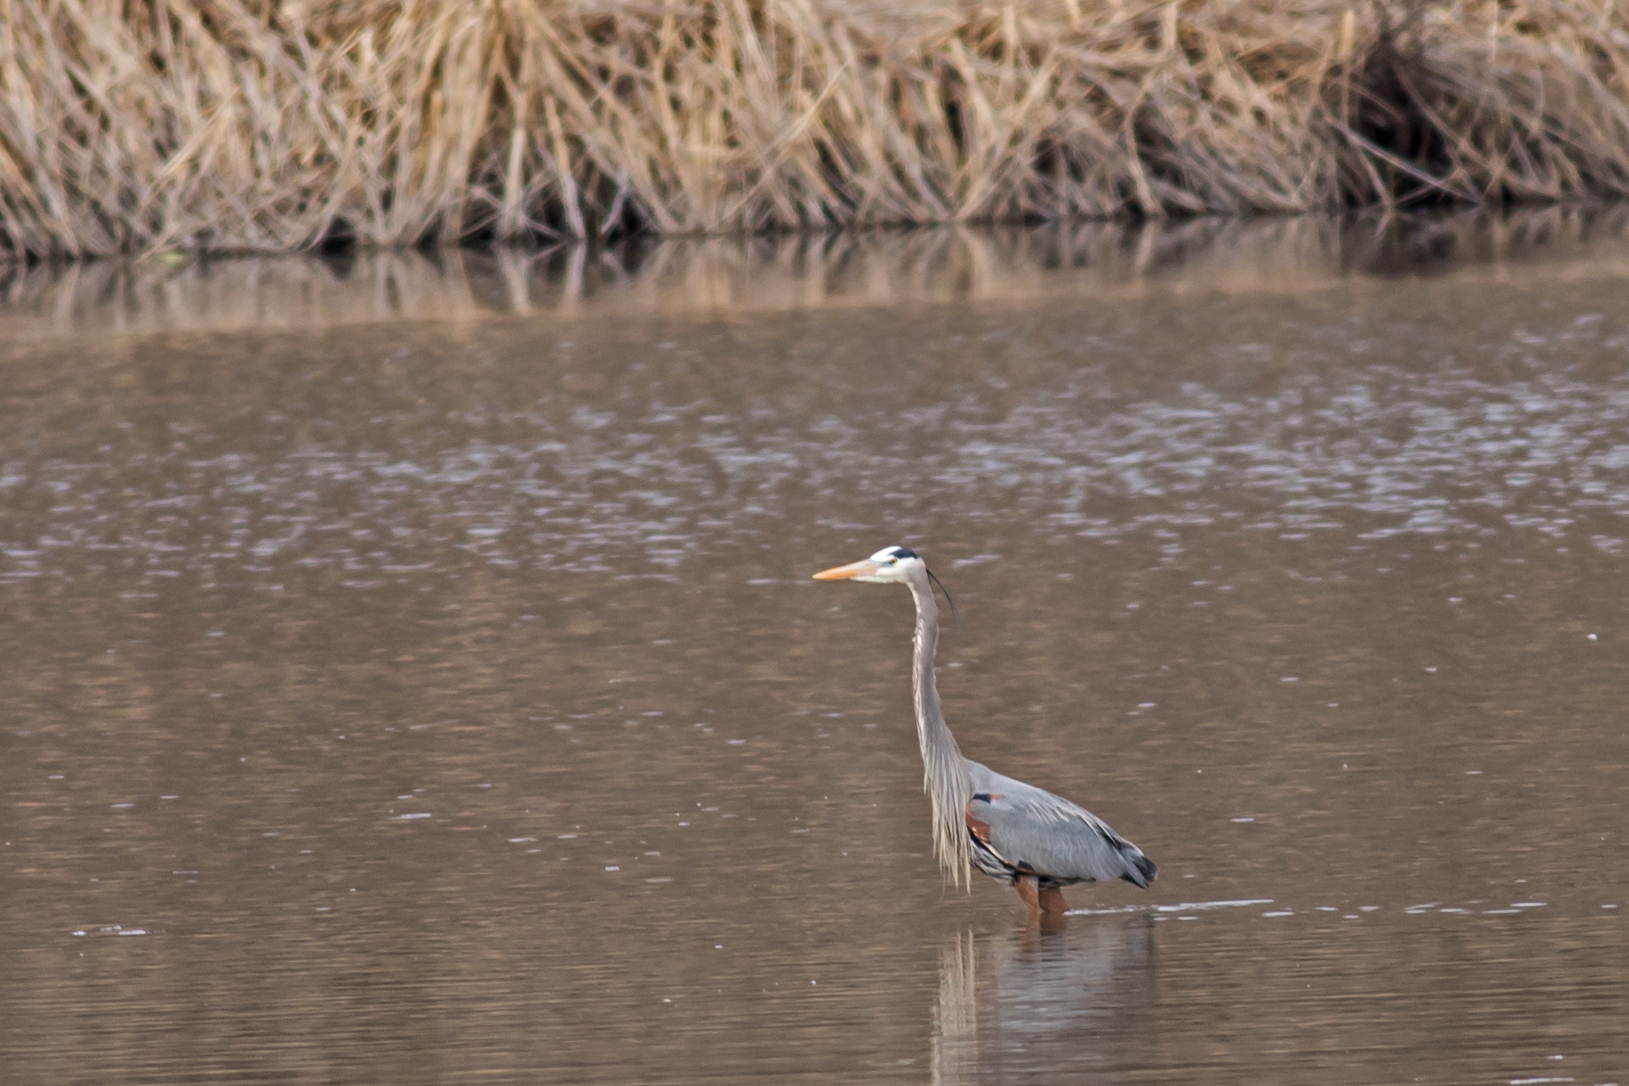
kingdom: Animalia
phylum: Chordata
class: Aves
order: Pelecaniformes
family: Ardeidae
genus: Ardea
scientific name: Ardea herodias
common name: Great blue heron
